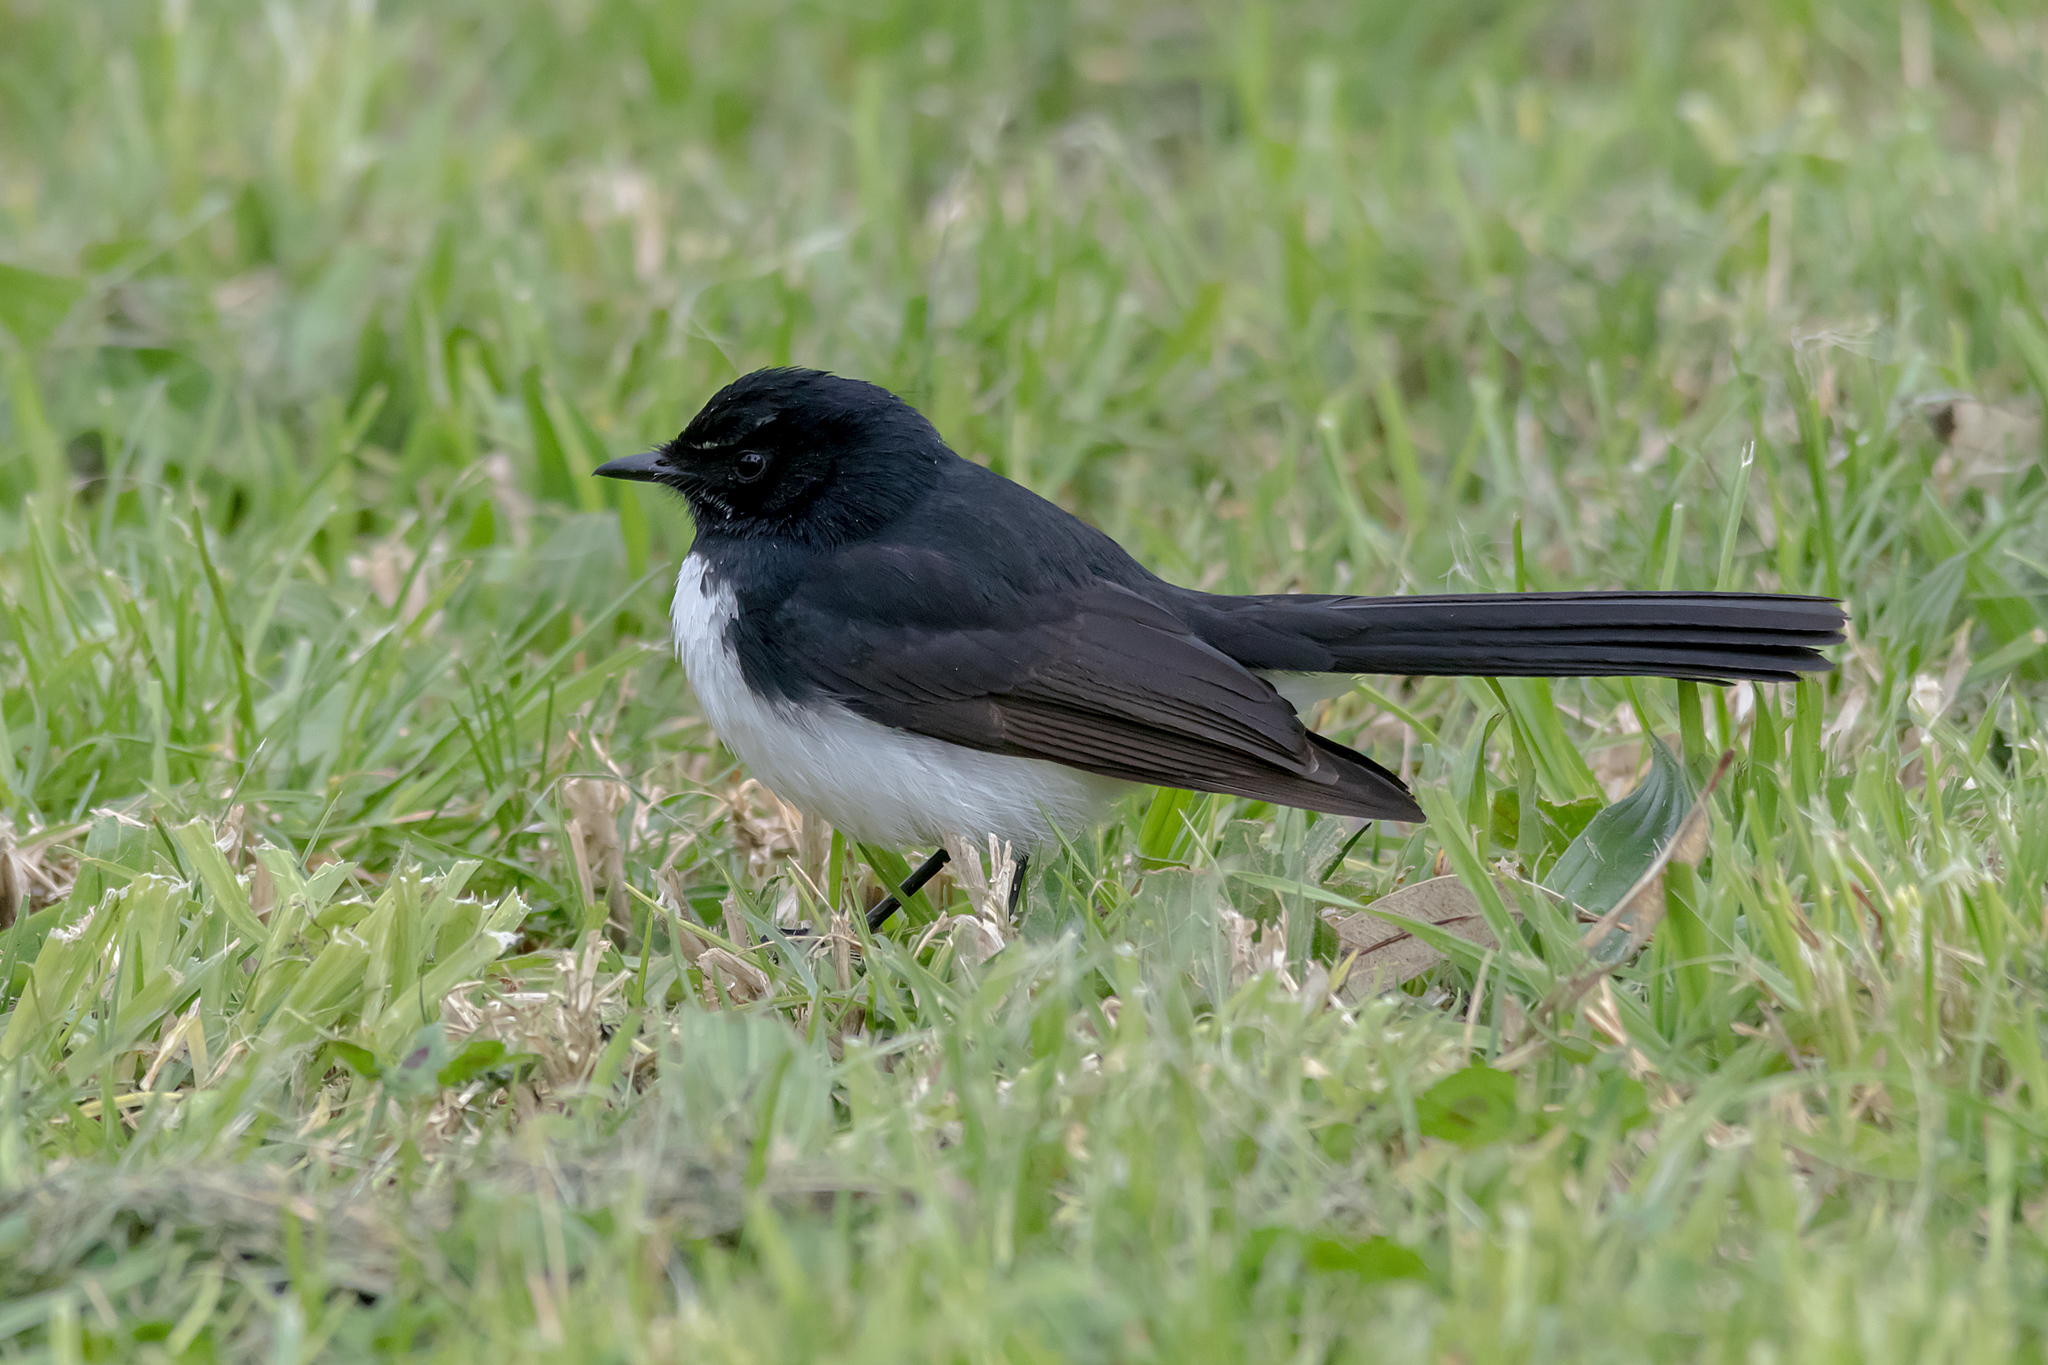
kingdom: Animalia
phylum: Chordata
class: Aves
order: Passeriformes
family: Rhipiduridae
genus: Rhipidura
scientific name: Rhipidura leucophrys
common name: Willie wagtail
